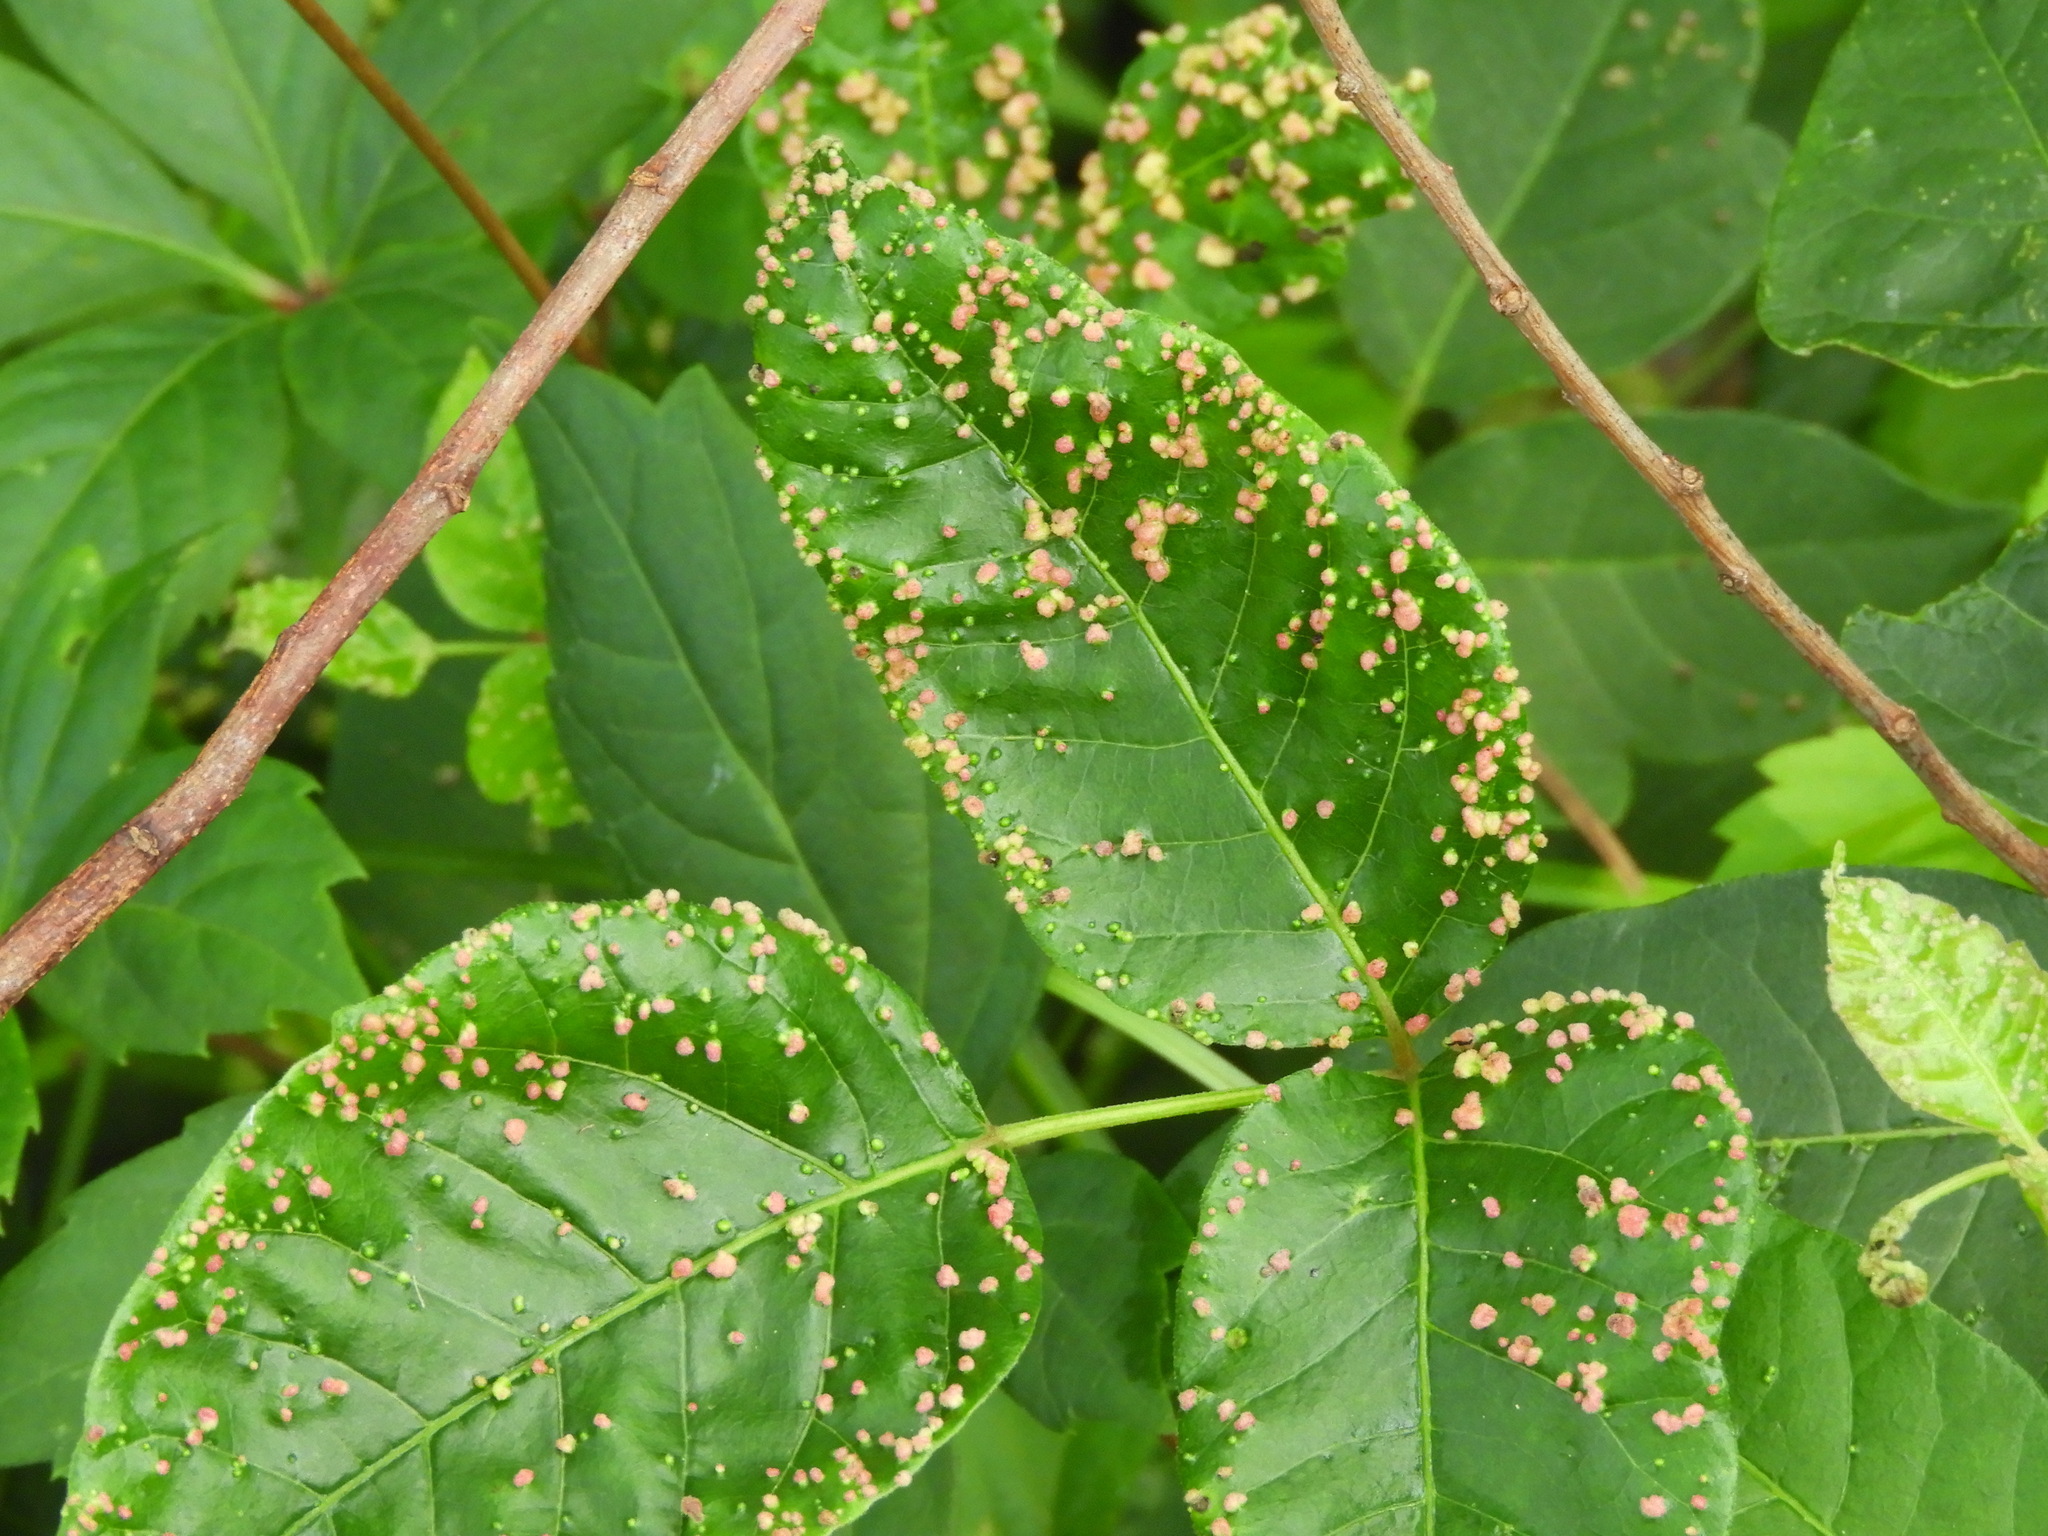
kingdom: Animalia
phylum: Arthropoda
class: Arachnida
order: Trombidiformes
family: Eriophyidae
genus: Aculops
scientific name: Aculops
